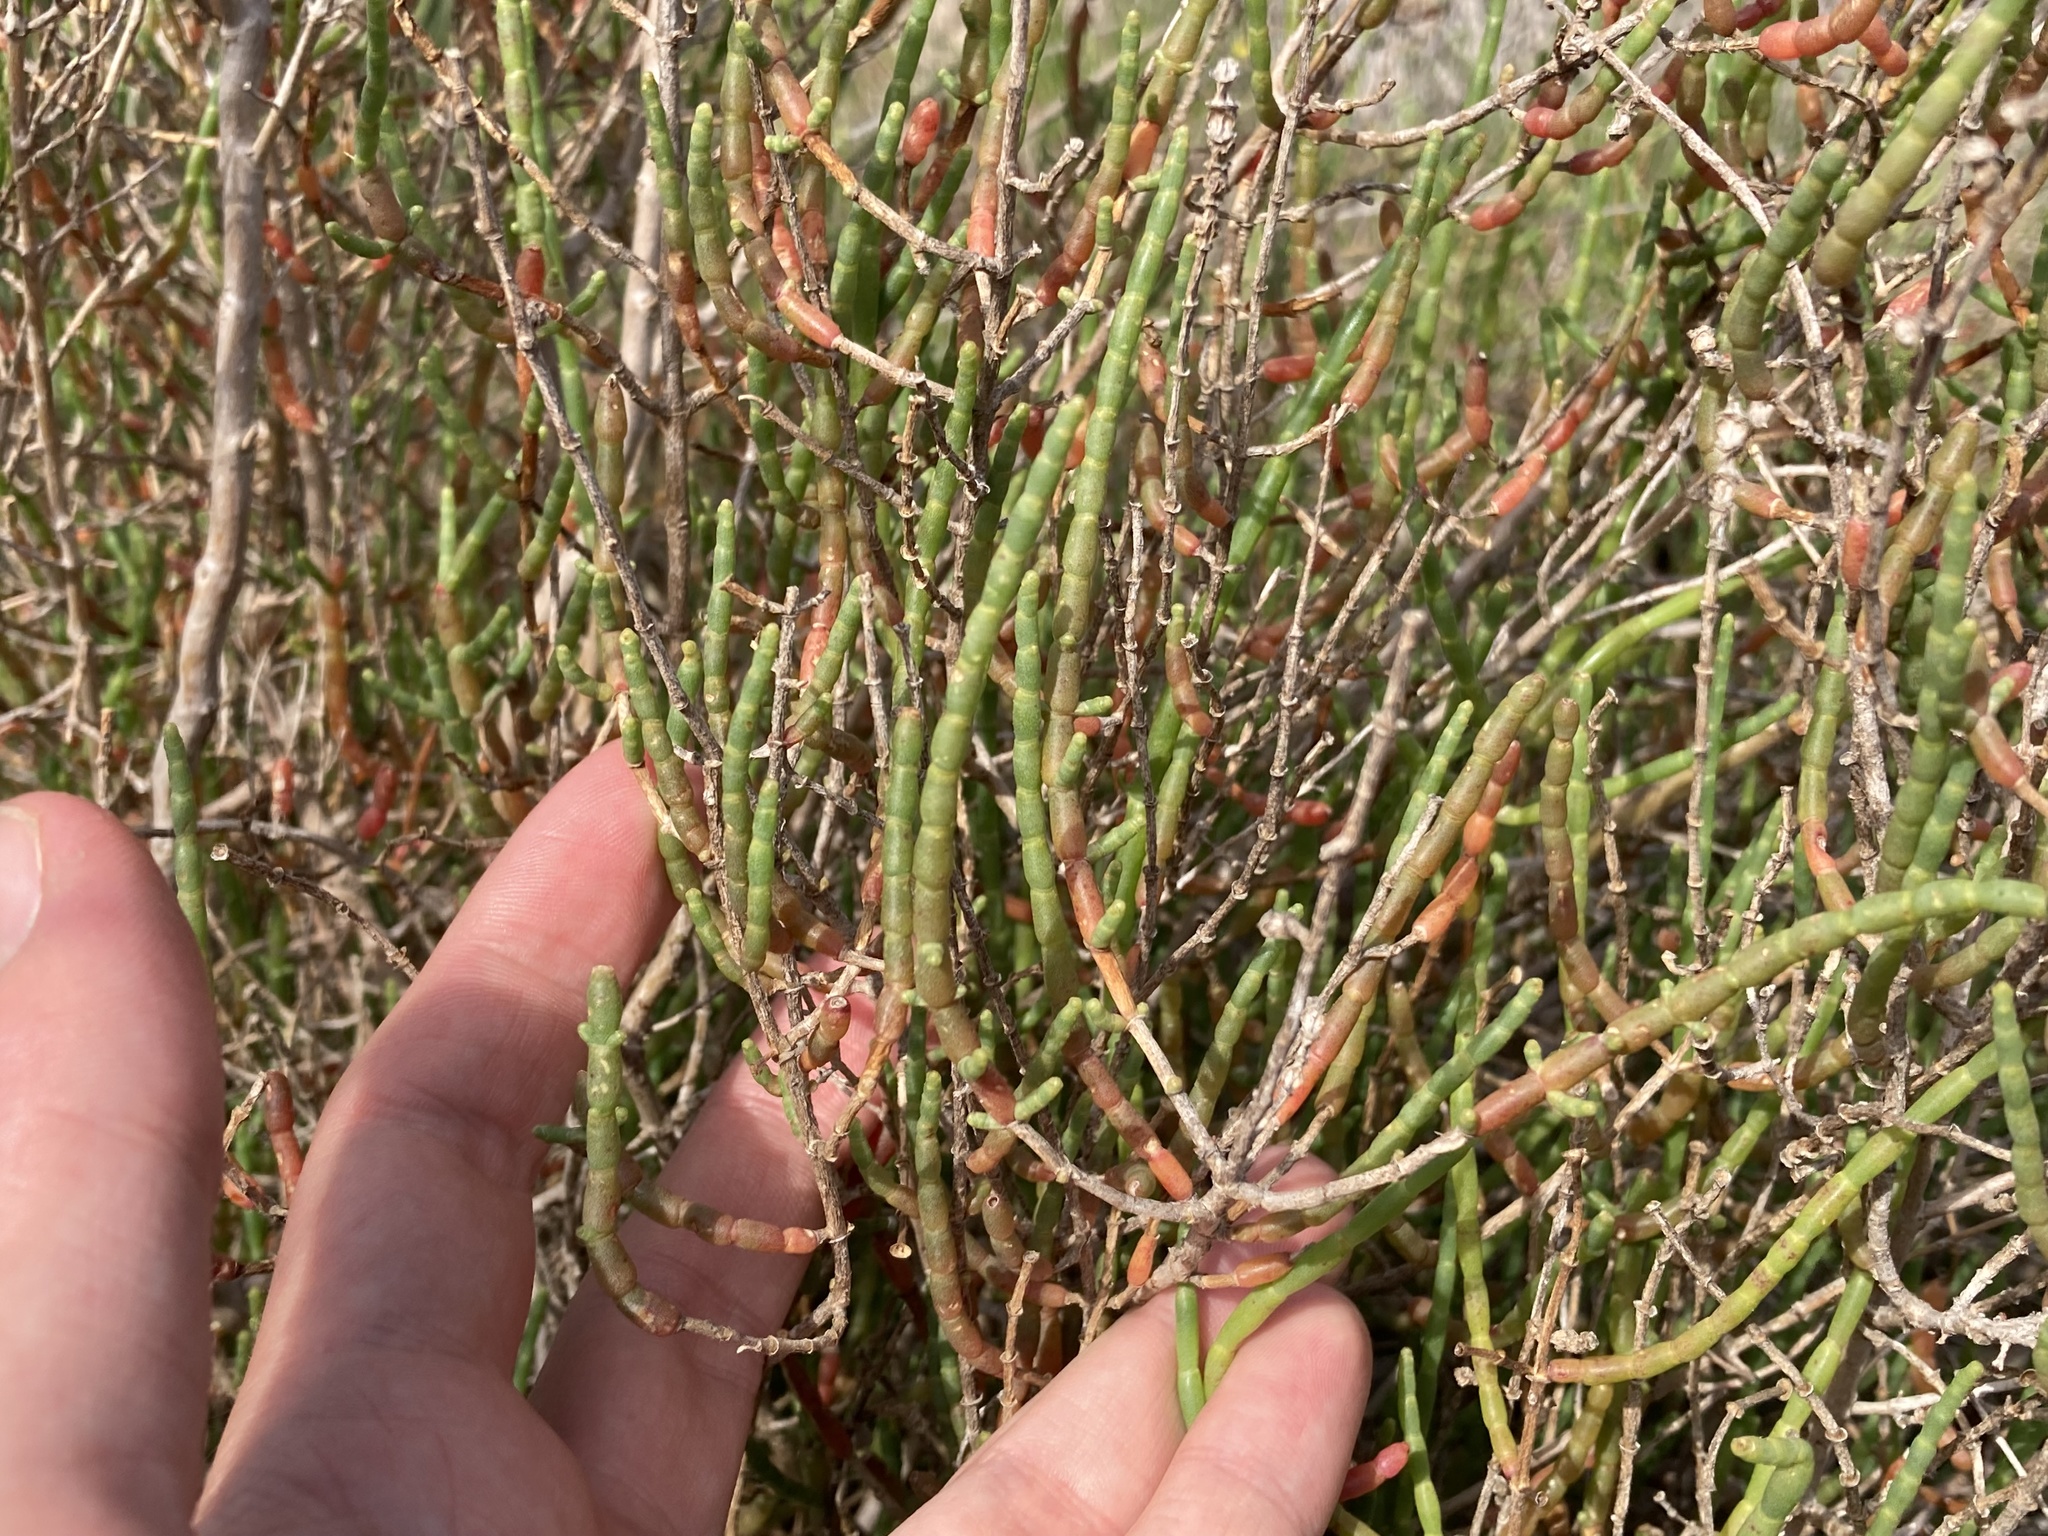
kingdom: Plantae
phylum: Tracheophyta
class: Magnoliopsida
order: Caryophyllales
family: Amaranthaceae
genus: Salicornia
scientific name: Salicornia fruticosa
